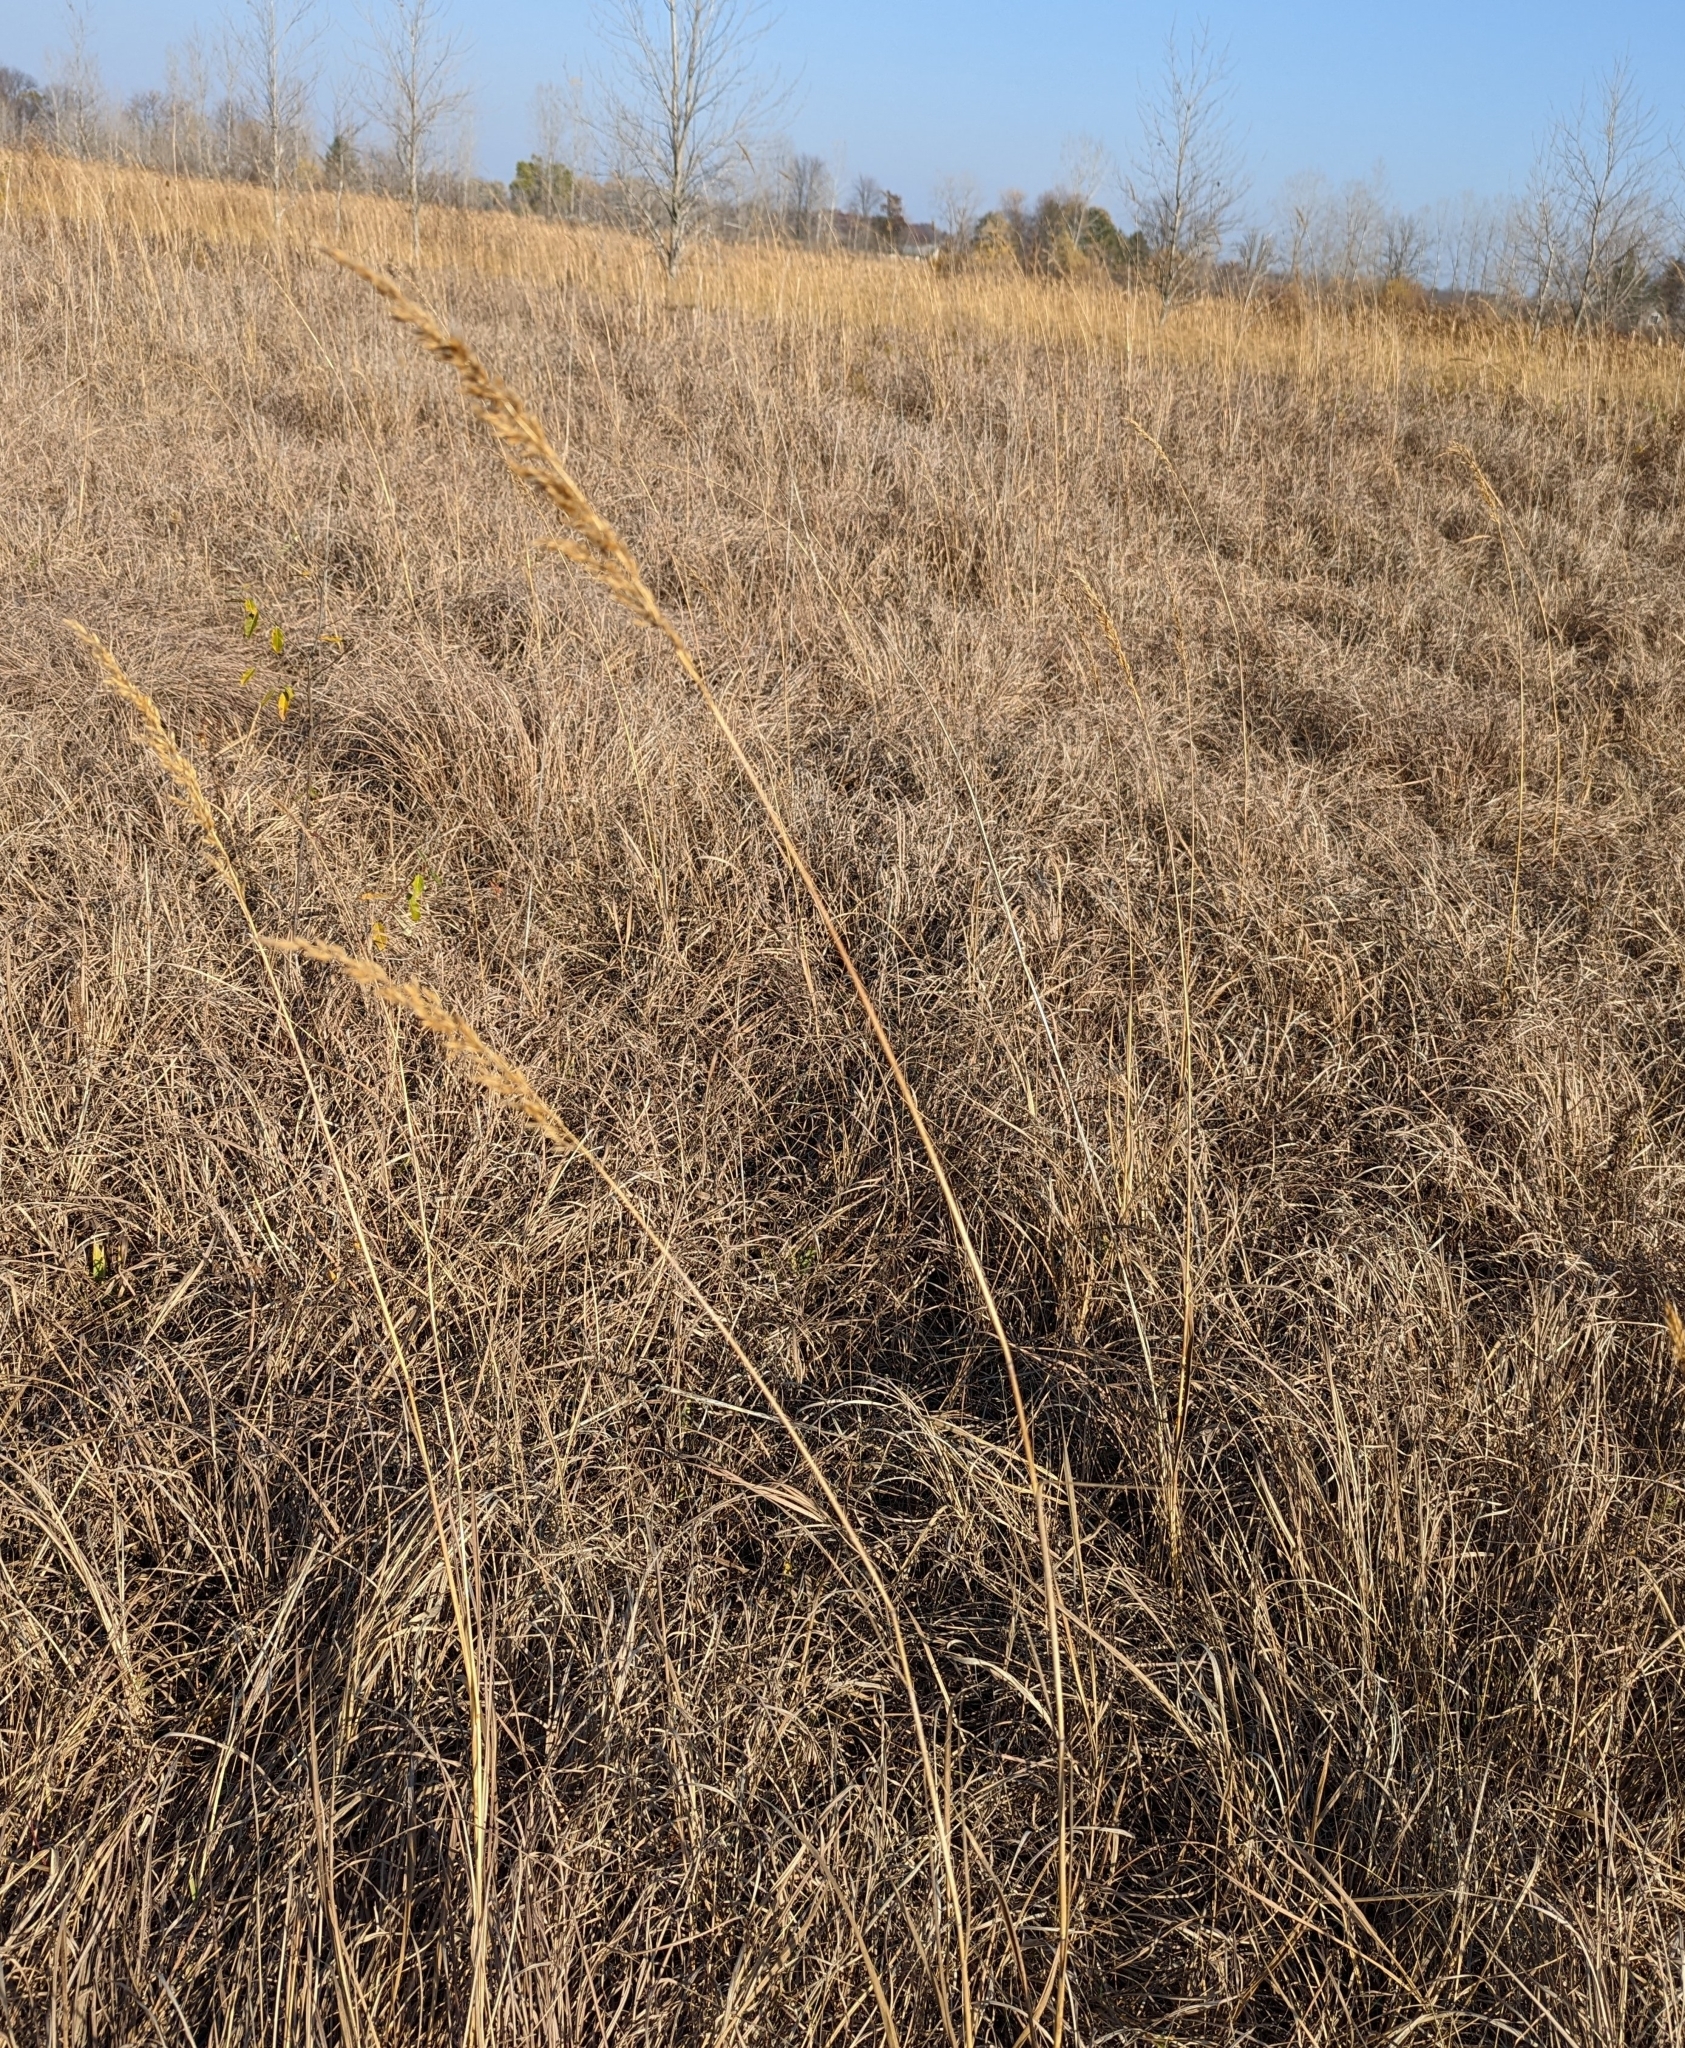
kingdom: Plantae
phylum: Tracheophyta
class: Liliopsida
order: Poales
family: Poaceae
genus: Sorghastrum
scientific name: Sorghastrum nutans
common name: Indian grass
